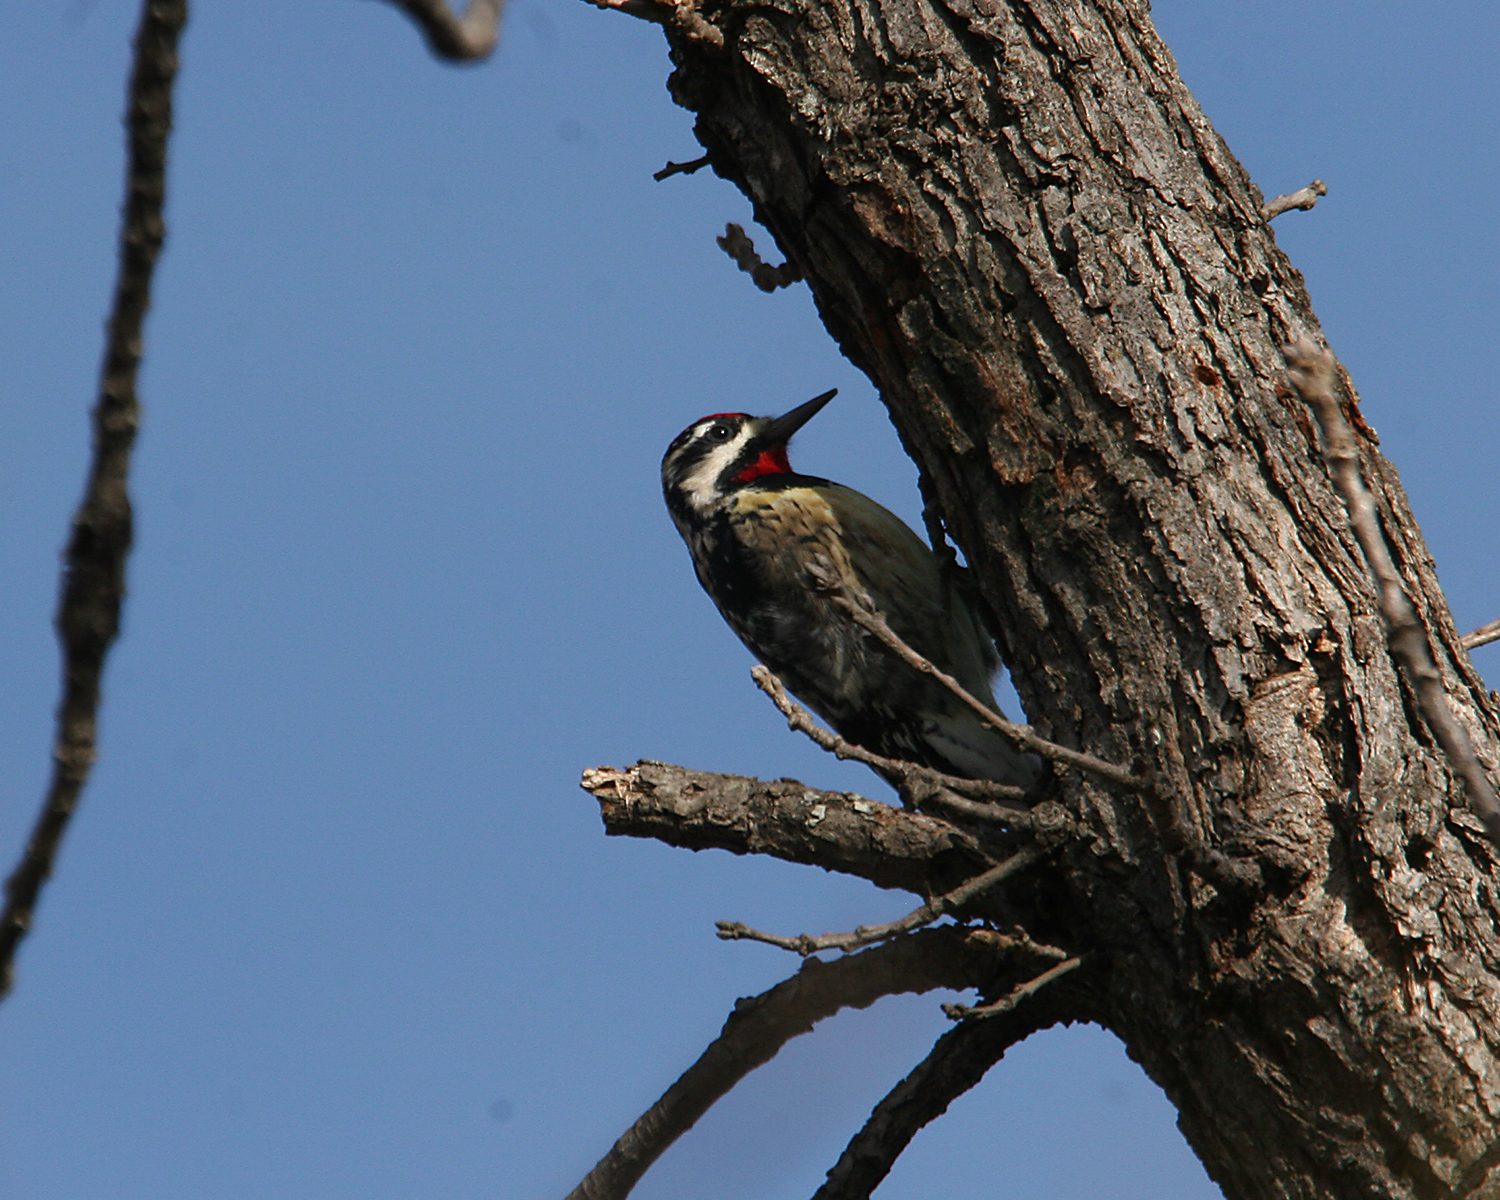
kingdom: Animalia
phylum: Chordata
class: Aves
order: Piciformes
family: Picidae
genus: Sphyrapicus
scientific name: Sphyrapicus varius
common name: Yellow-bellied sapsucker
